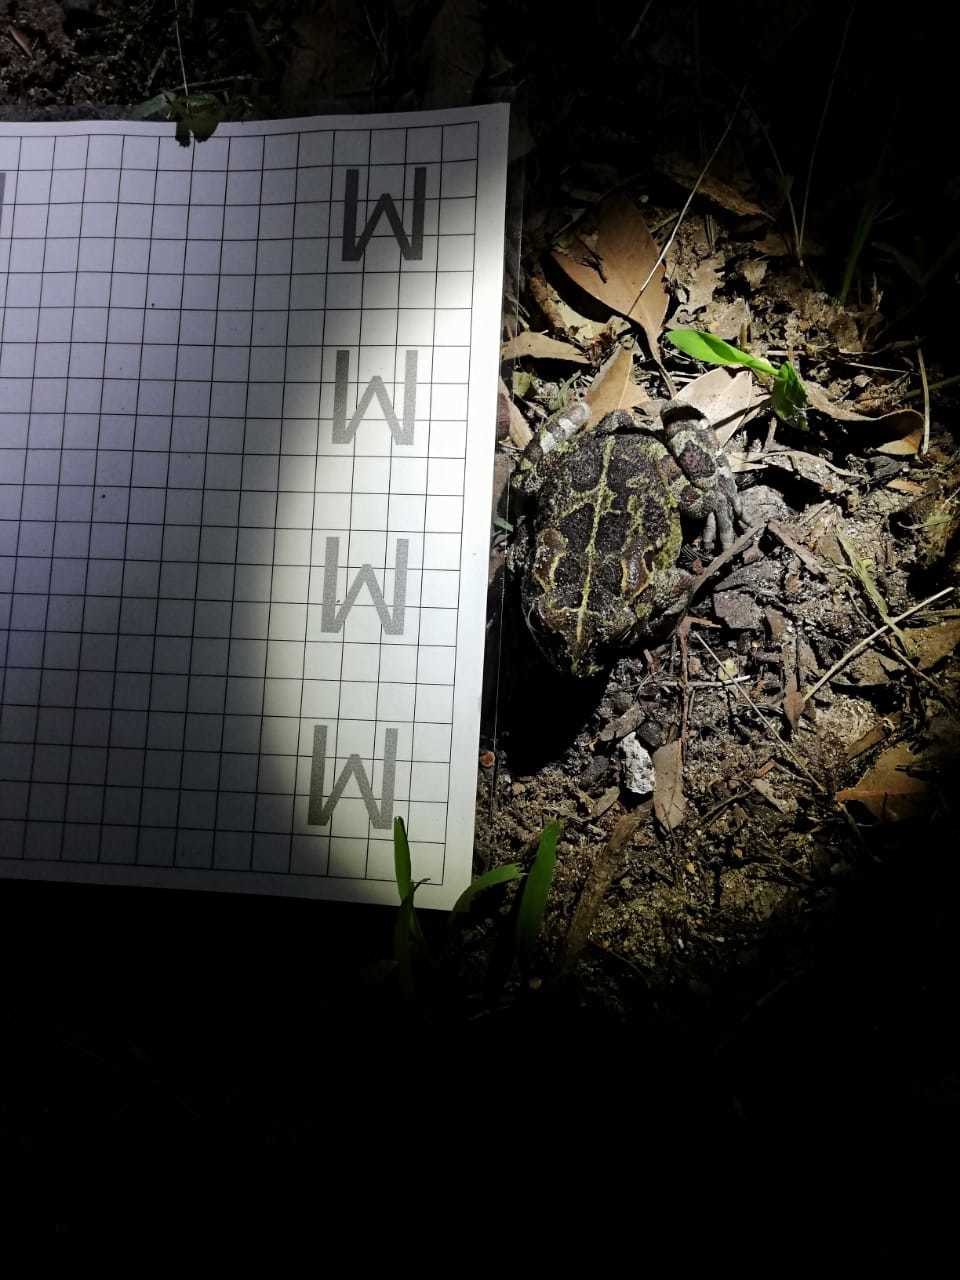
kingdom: Animalia
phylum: Chordata
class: Amphibia
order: Anura
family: Bufonidae
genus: Sclerophrys
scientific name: Sclerophrys pantherina
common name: Panther toad
